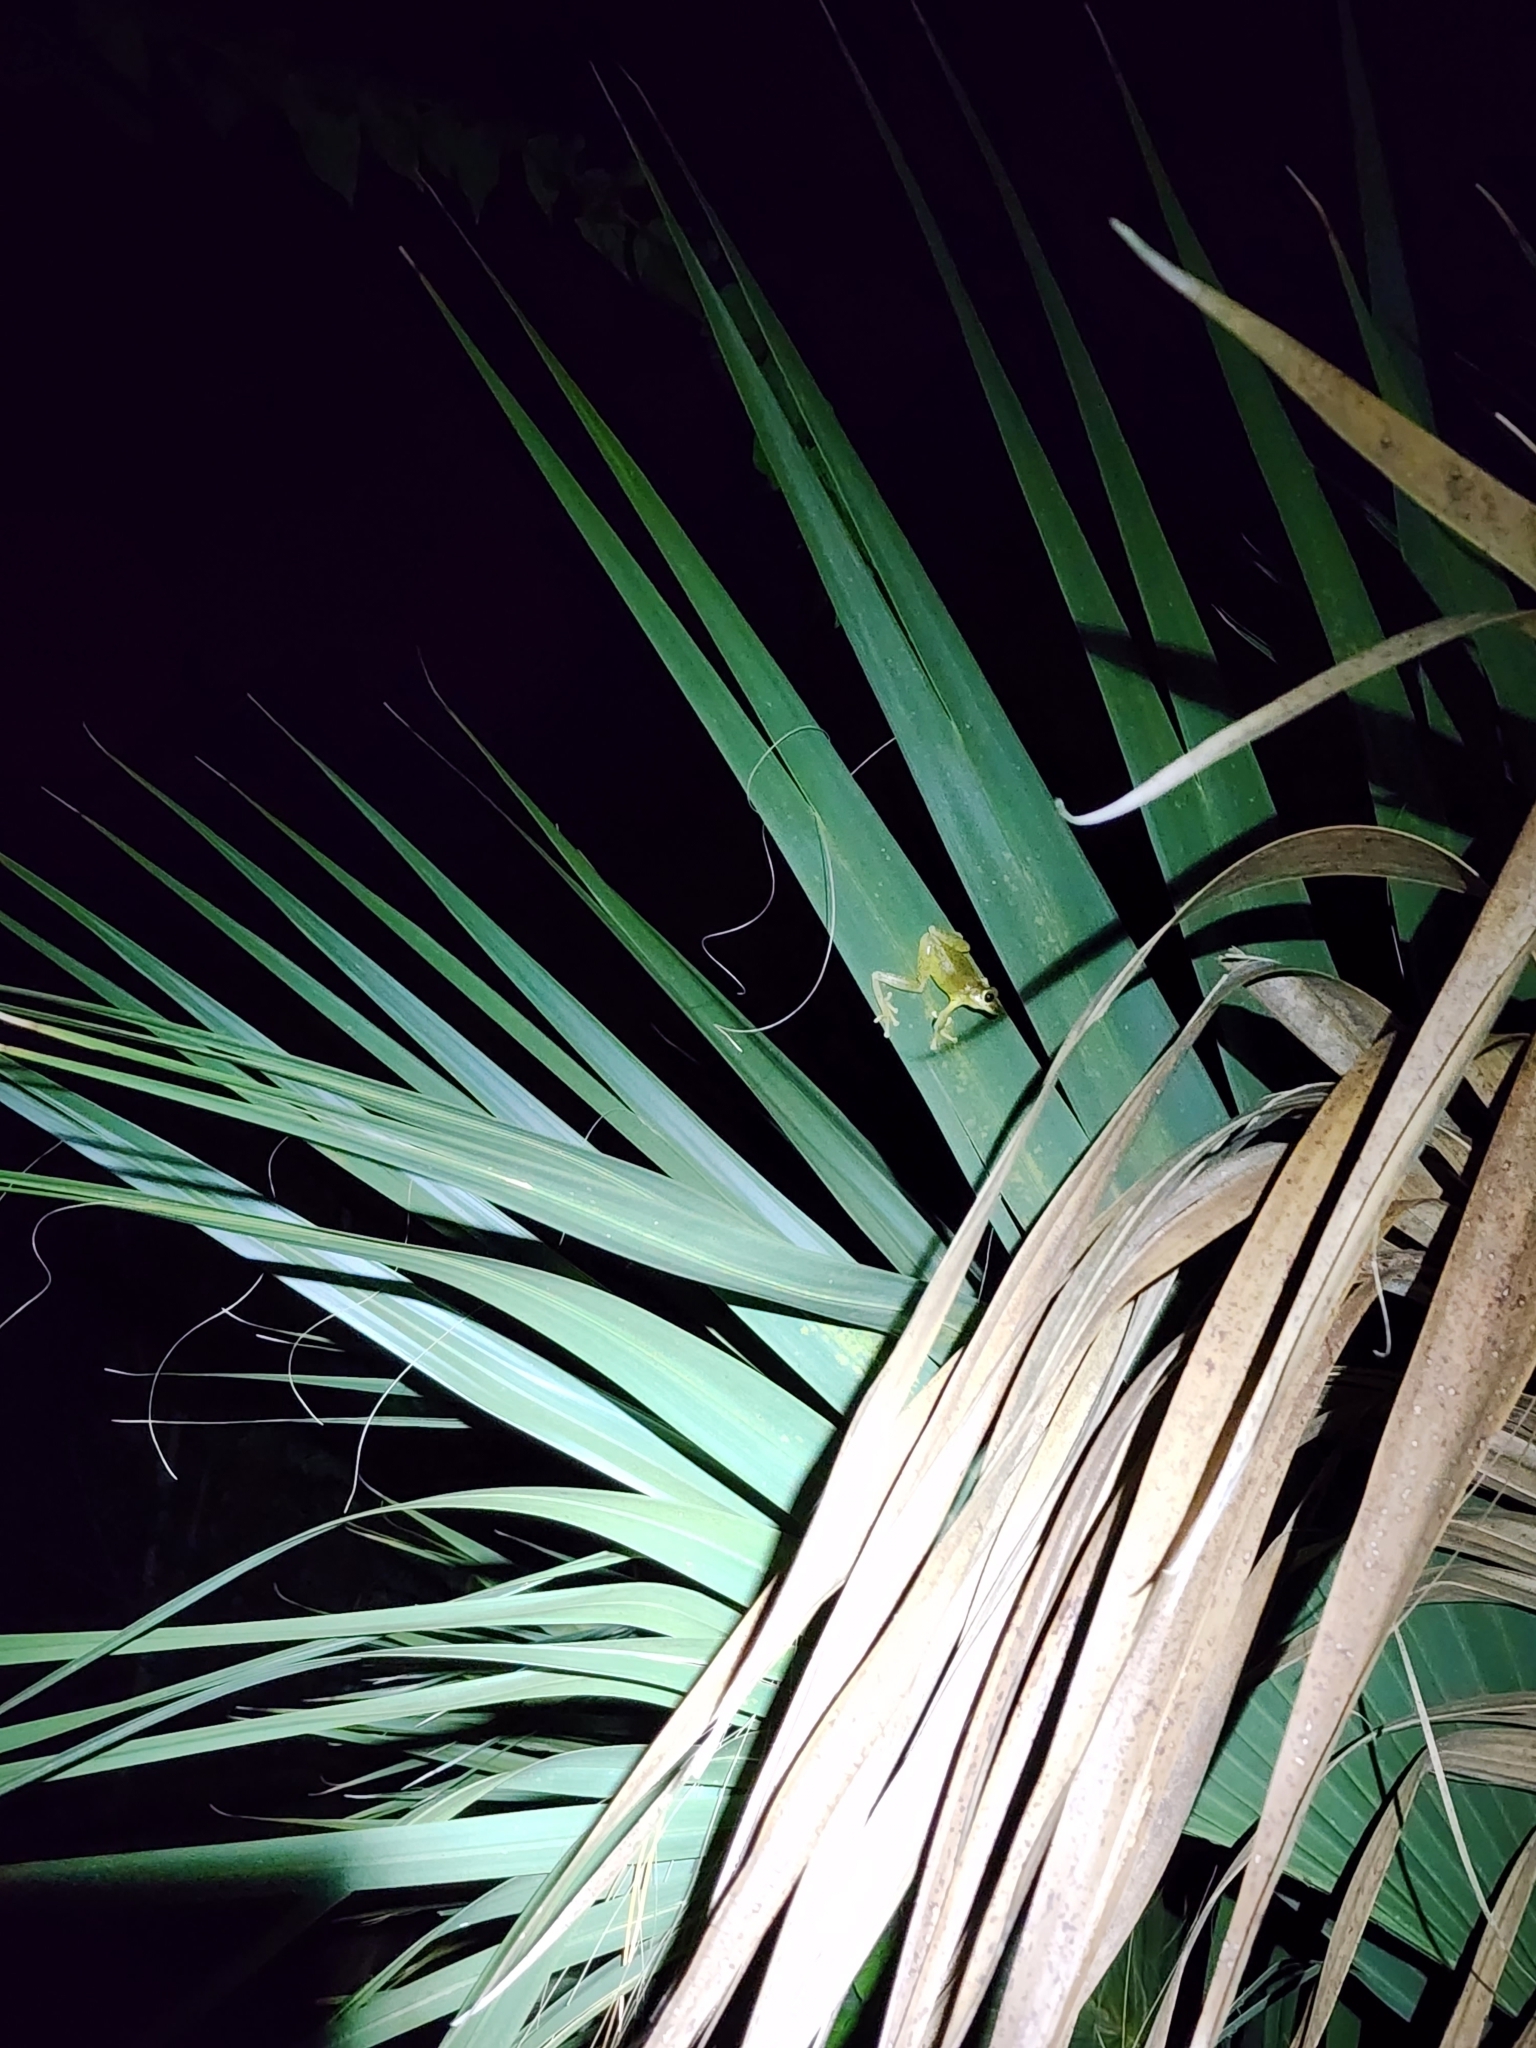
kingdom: Animalia
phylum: Chordata
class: Amphibia
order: Anura
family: Hylidae
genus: Osteopilus
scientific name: Osteopilus septentrionalis
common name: Cuban treefrog
